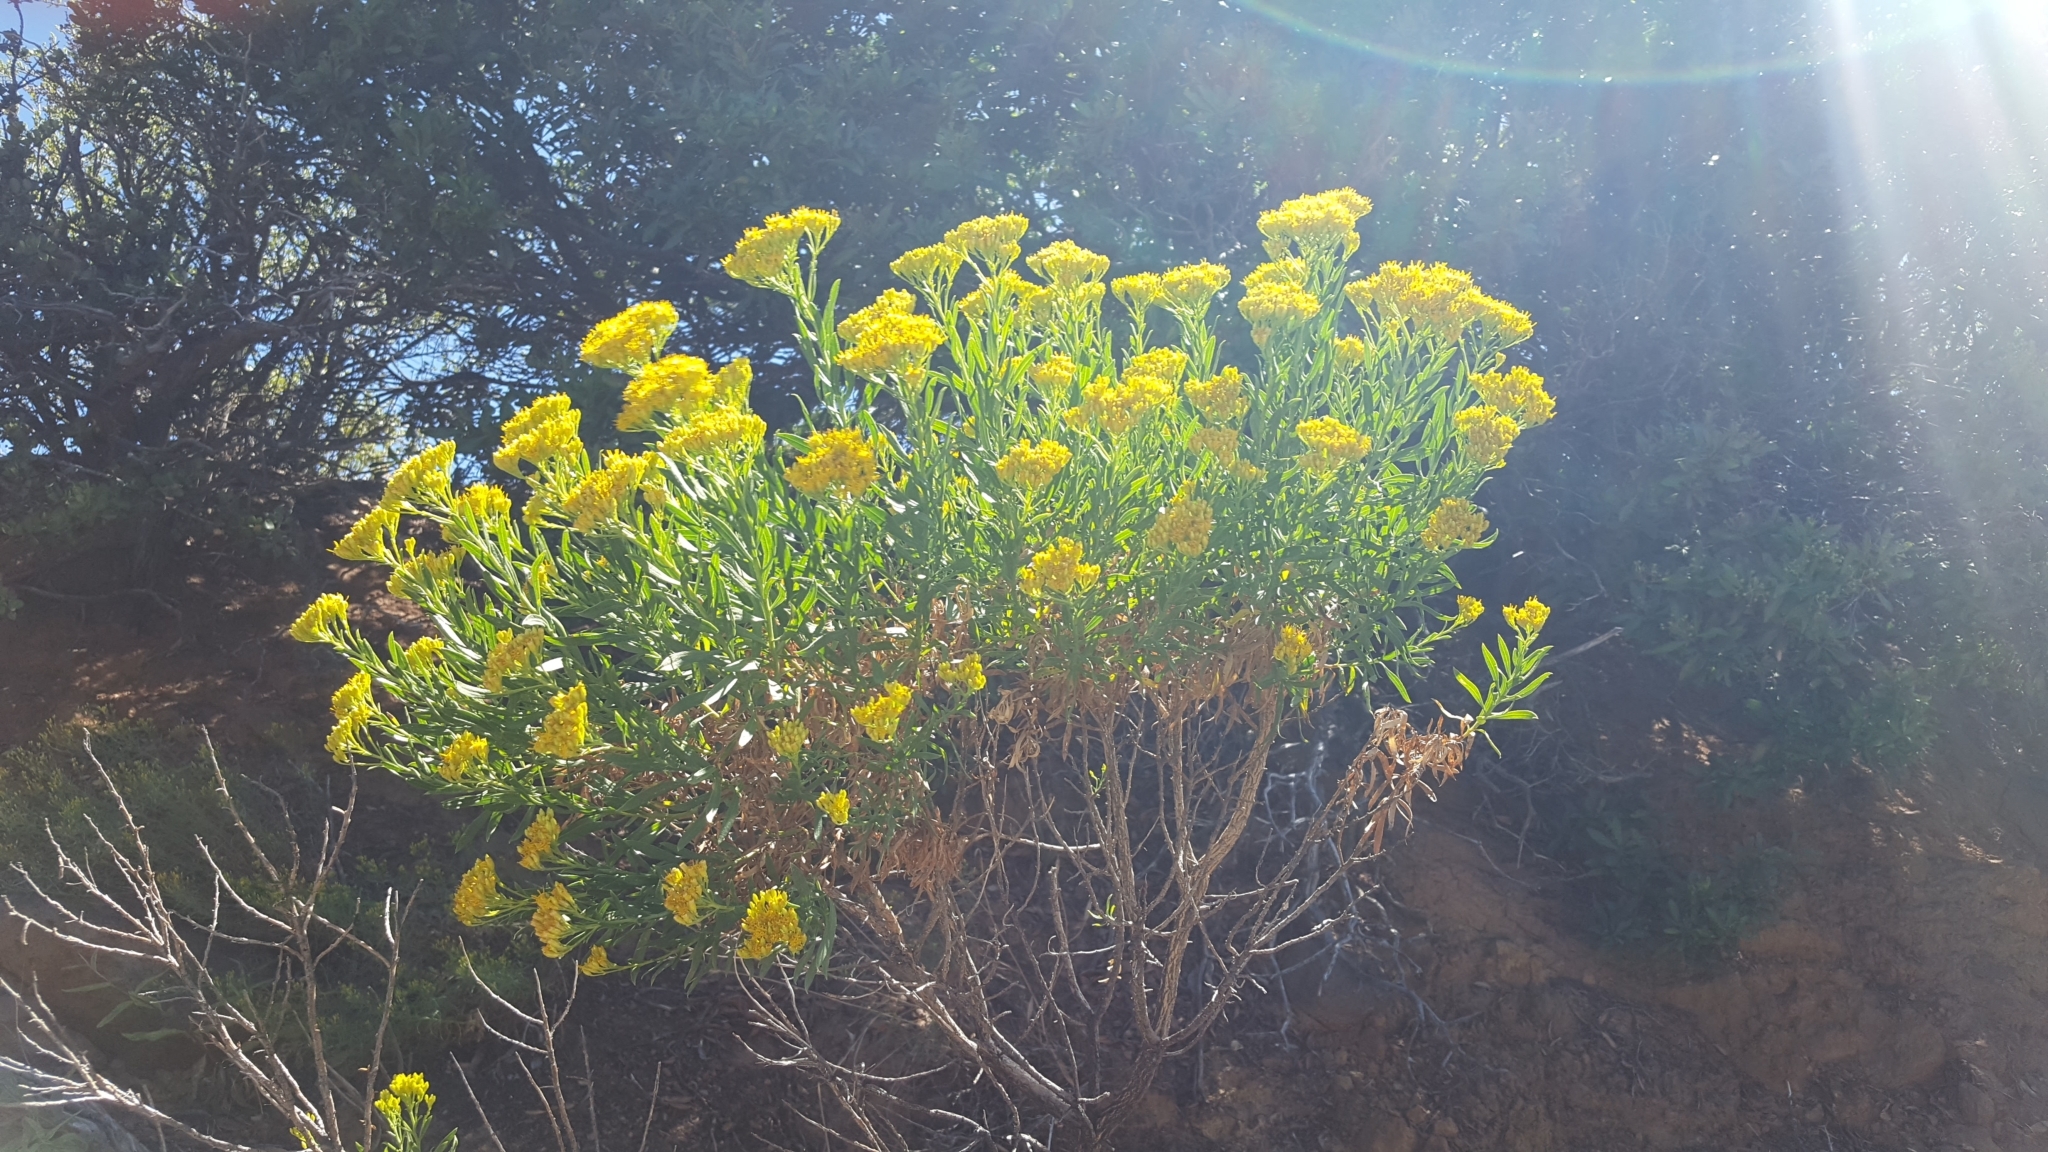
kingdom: Plantae
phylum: Tracheophyta
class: Magnoliopsida
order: Asterales
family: Asteraceae
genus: Ericameria
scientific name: Ericameria parishii
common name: Parish's goldenbush
